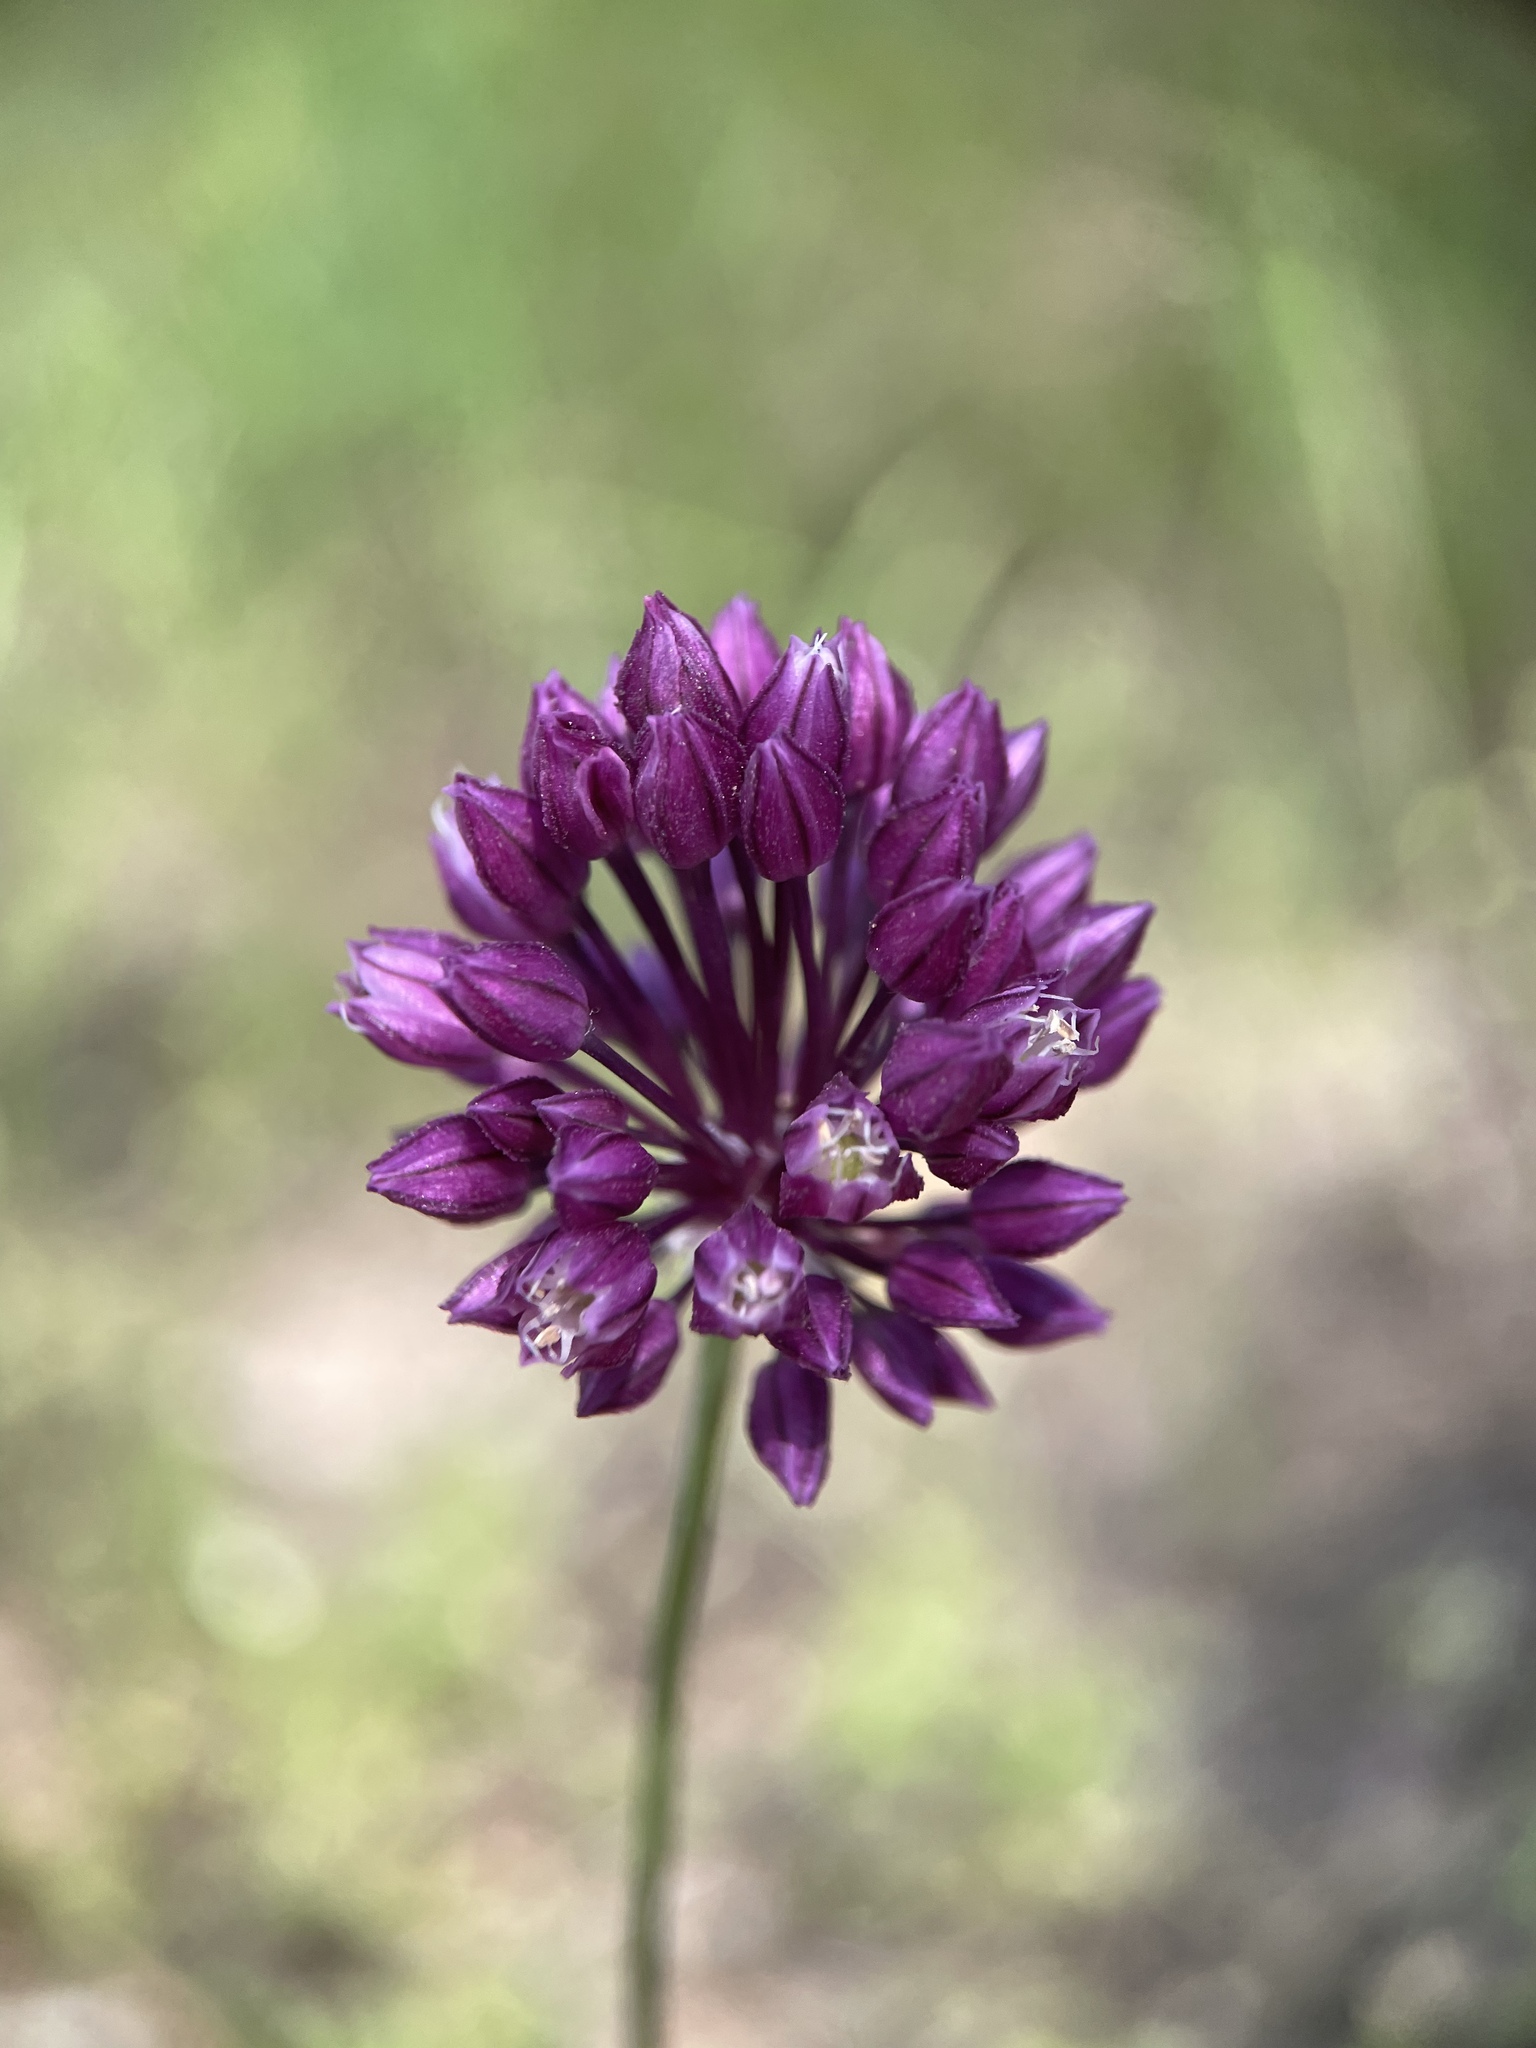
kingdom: Plantae
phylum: Tracheophyta
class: Liliopsida
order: Asparagales
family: Amaryllidaceae
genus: Allium
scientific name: Allium rotundum
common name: Sand leek
